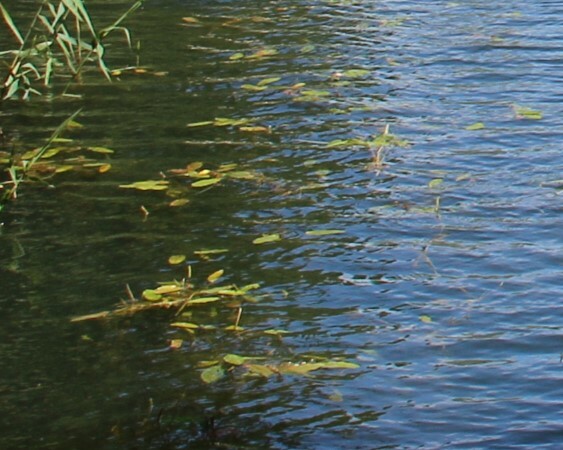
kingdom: Plantae
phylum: Tracheophyta
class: Liliopsida
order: Alismatales
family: Potamogetonaceae
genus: Potamogeton
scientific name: Potamogeton natans
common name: Broad-leaved pondweed
